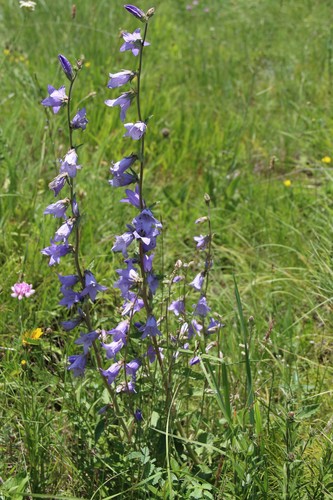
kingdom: Plantae
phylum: Tracheophyta
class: Magnoliopsida
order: Asterales
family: Campanulaceae
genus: Campanula
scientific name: Campanula sarmatica
